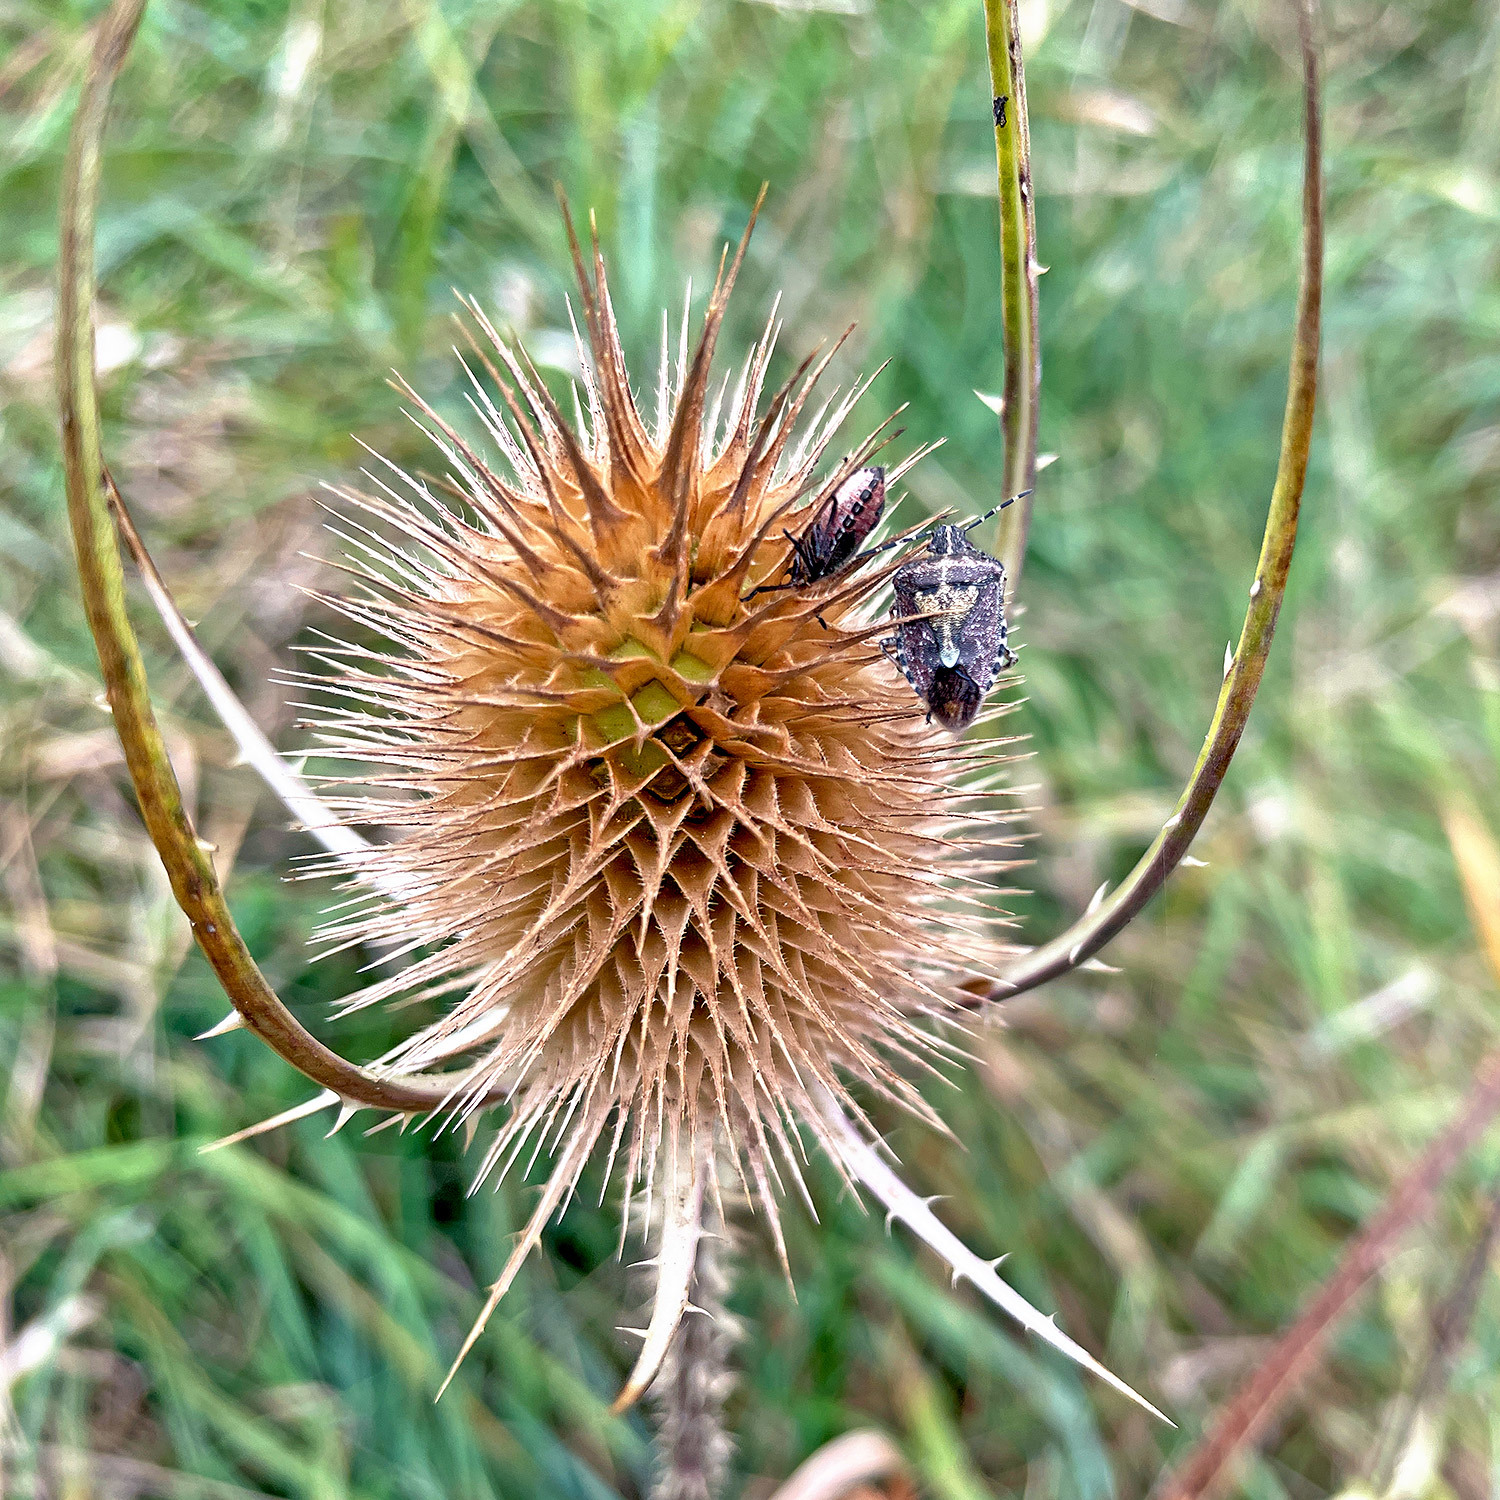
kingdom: Plantae
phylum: Tracheophyta
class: Magnoliopsida
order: Dipsacales
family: Caprifoliaceae
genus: Dipsacus
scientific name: Dipsacus fullonum
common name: Teasel
